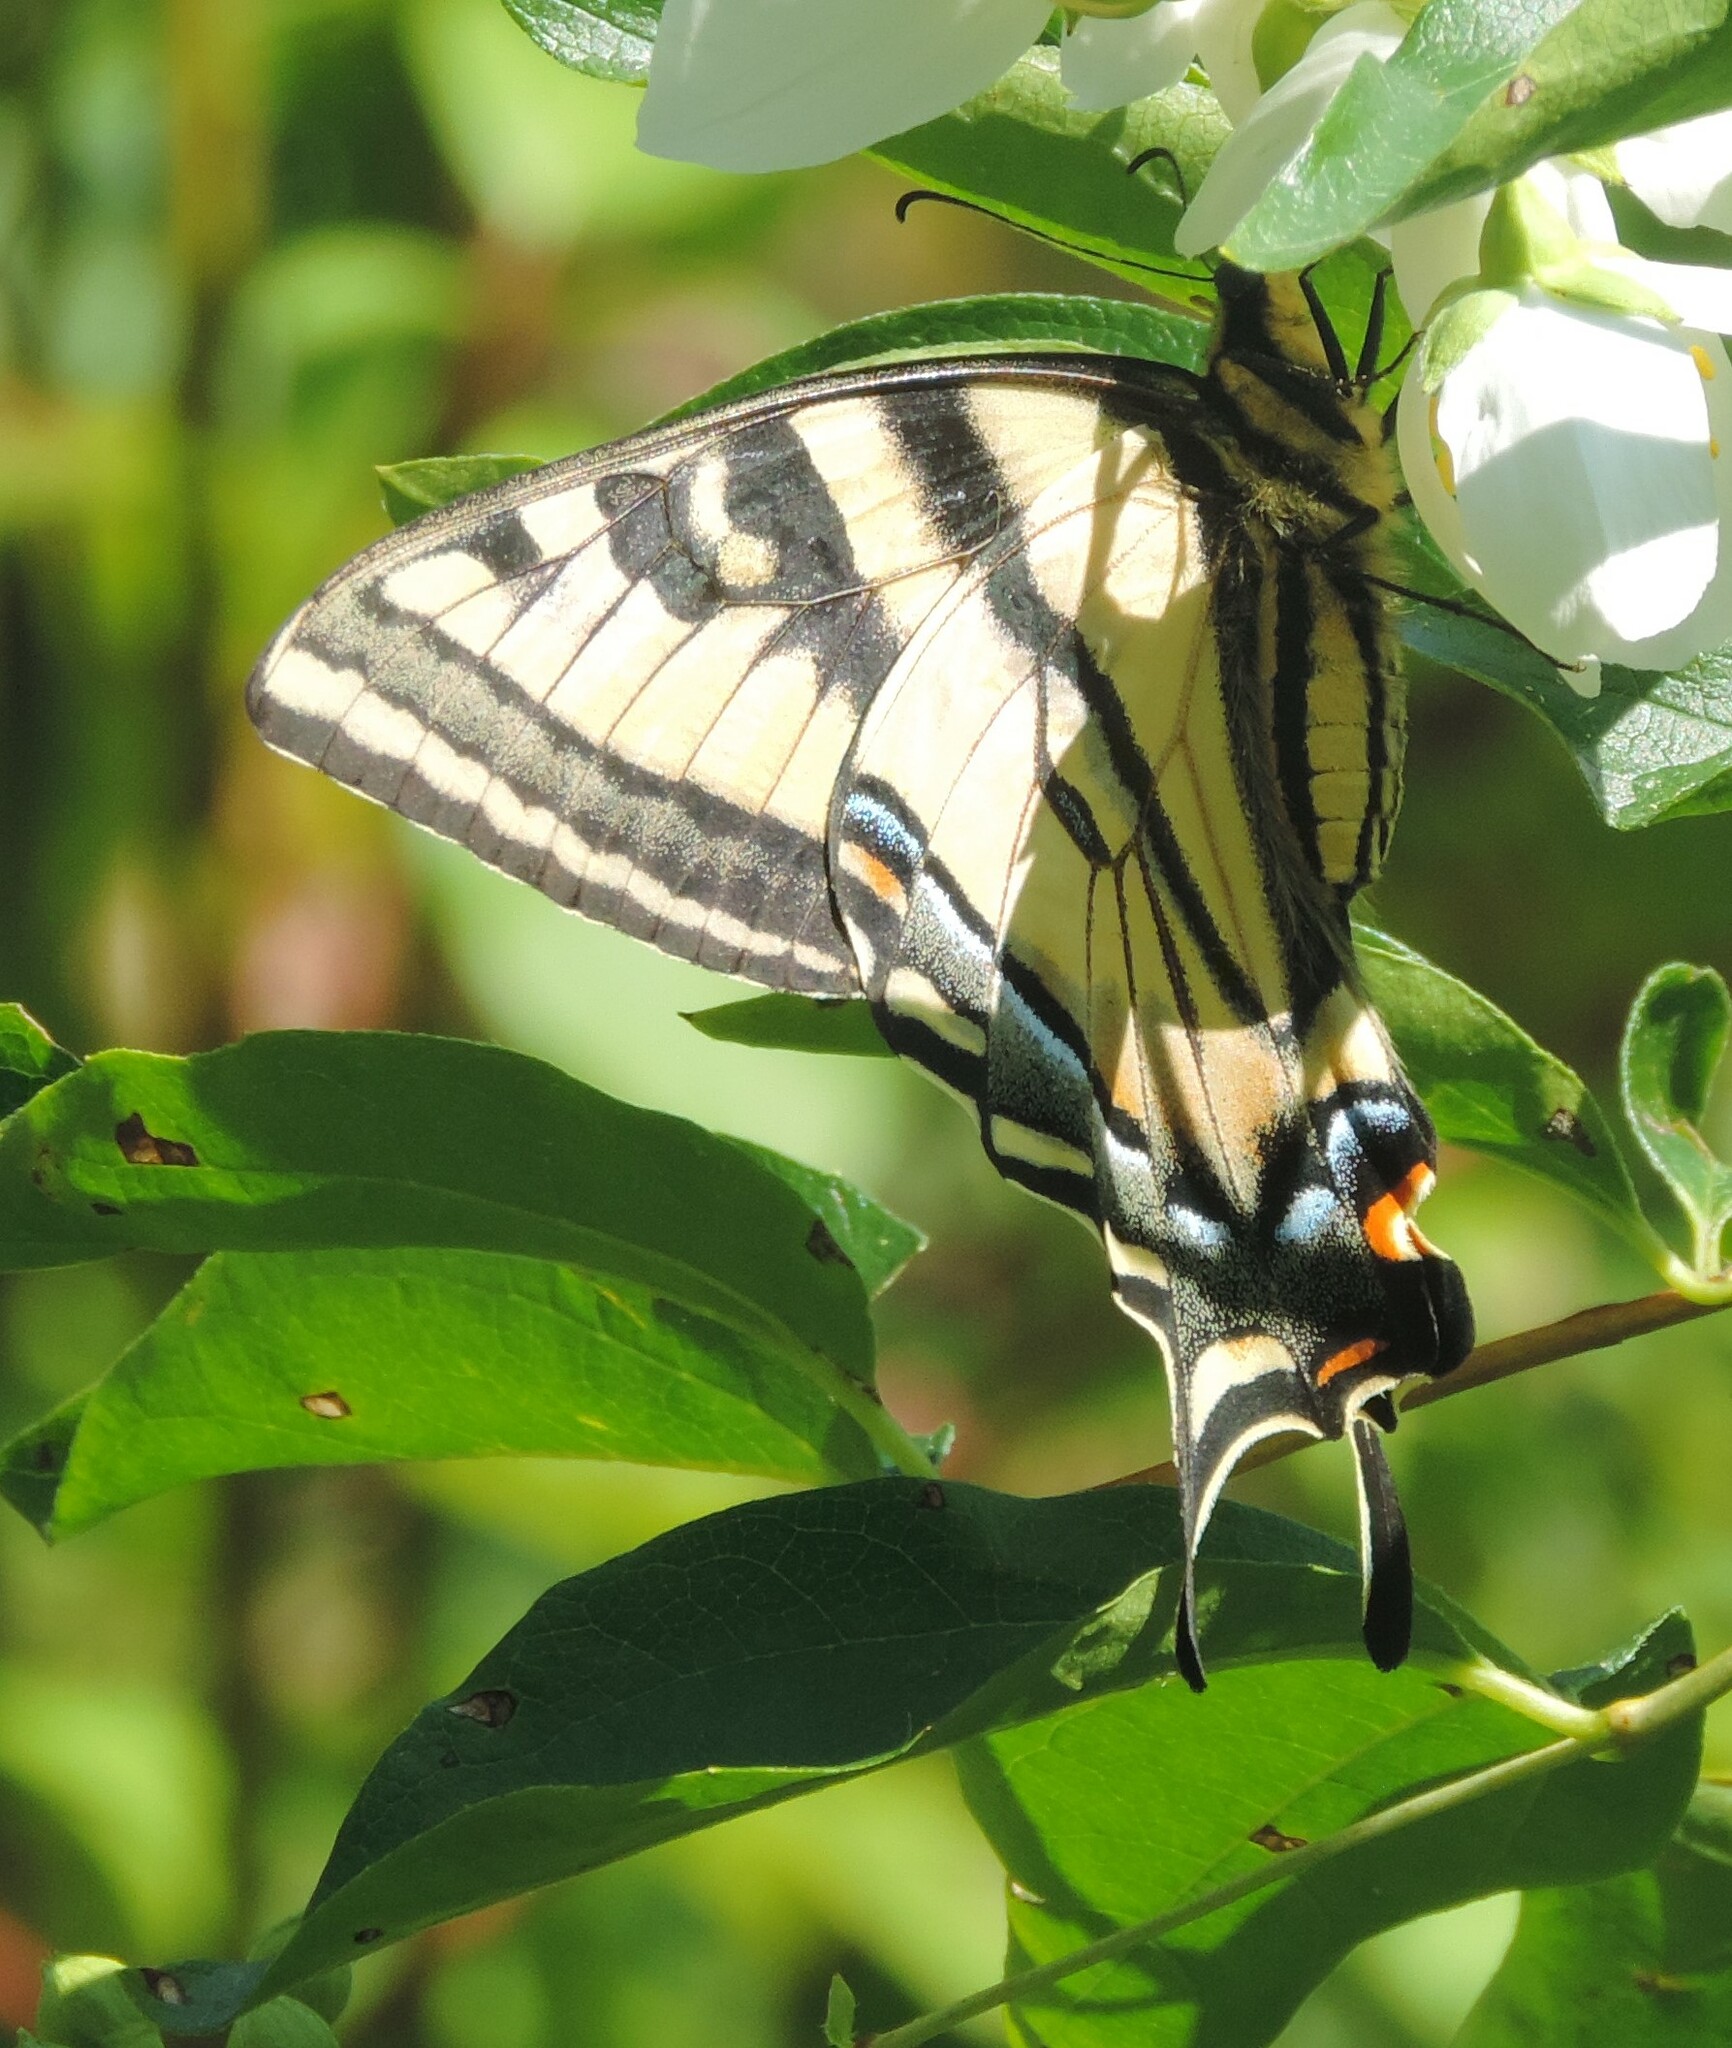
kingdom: Animalia
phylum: Arthropoda
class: Insecta
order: Lepidoptera
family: Papilionidae
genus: Papilio
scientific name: Papilio rutulus
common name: Western tiger swallowtail
